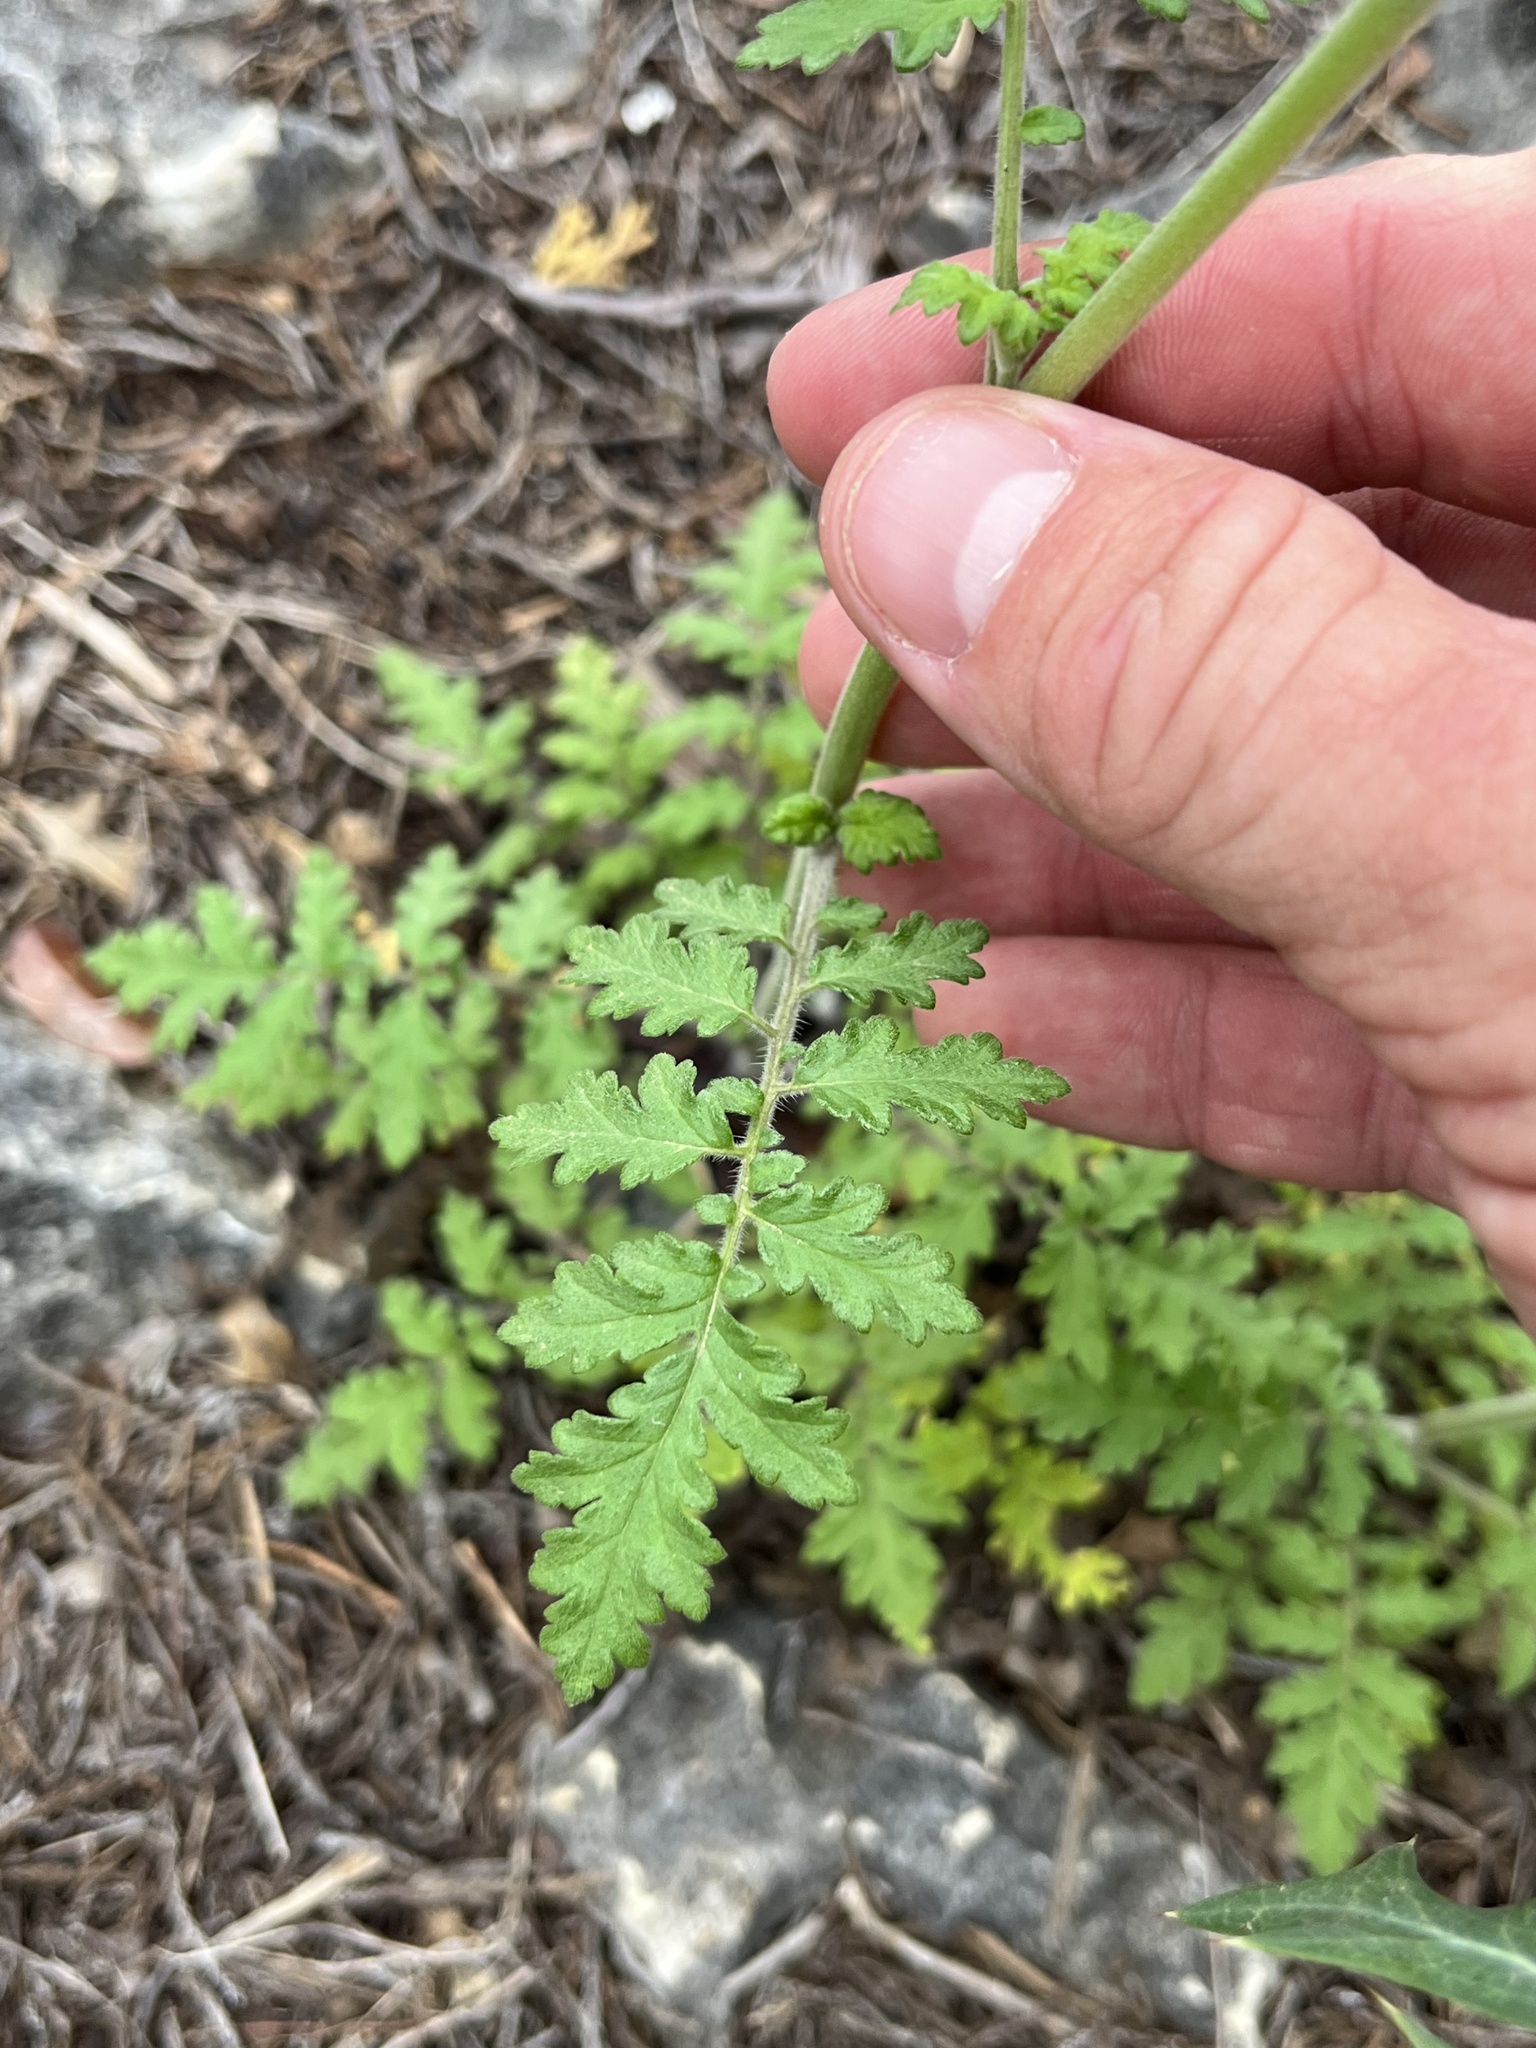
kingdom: Plantae
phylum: Tracheophyta
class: Magnoliopsida
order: Boraginales
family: Hydrophyllaceae
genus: Phacelia
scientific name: Phacelia congesta
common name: Blue curls
